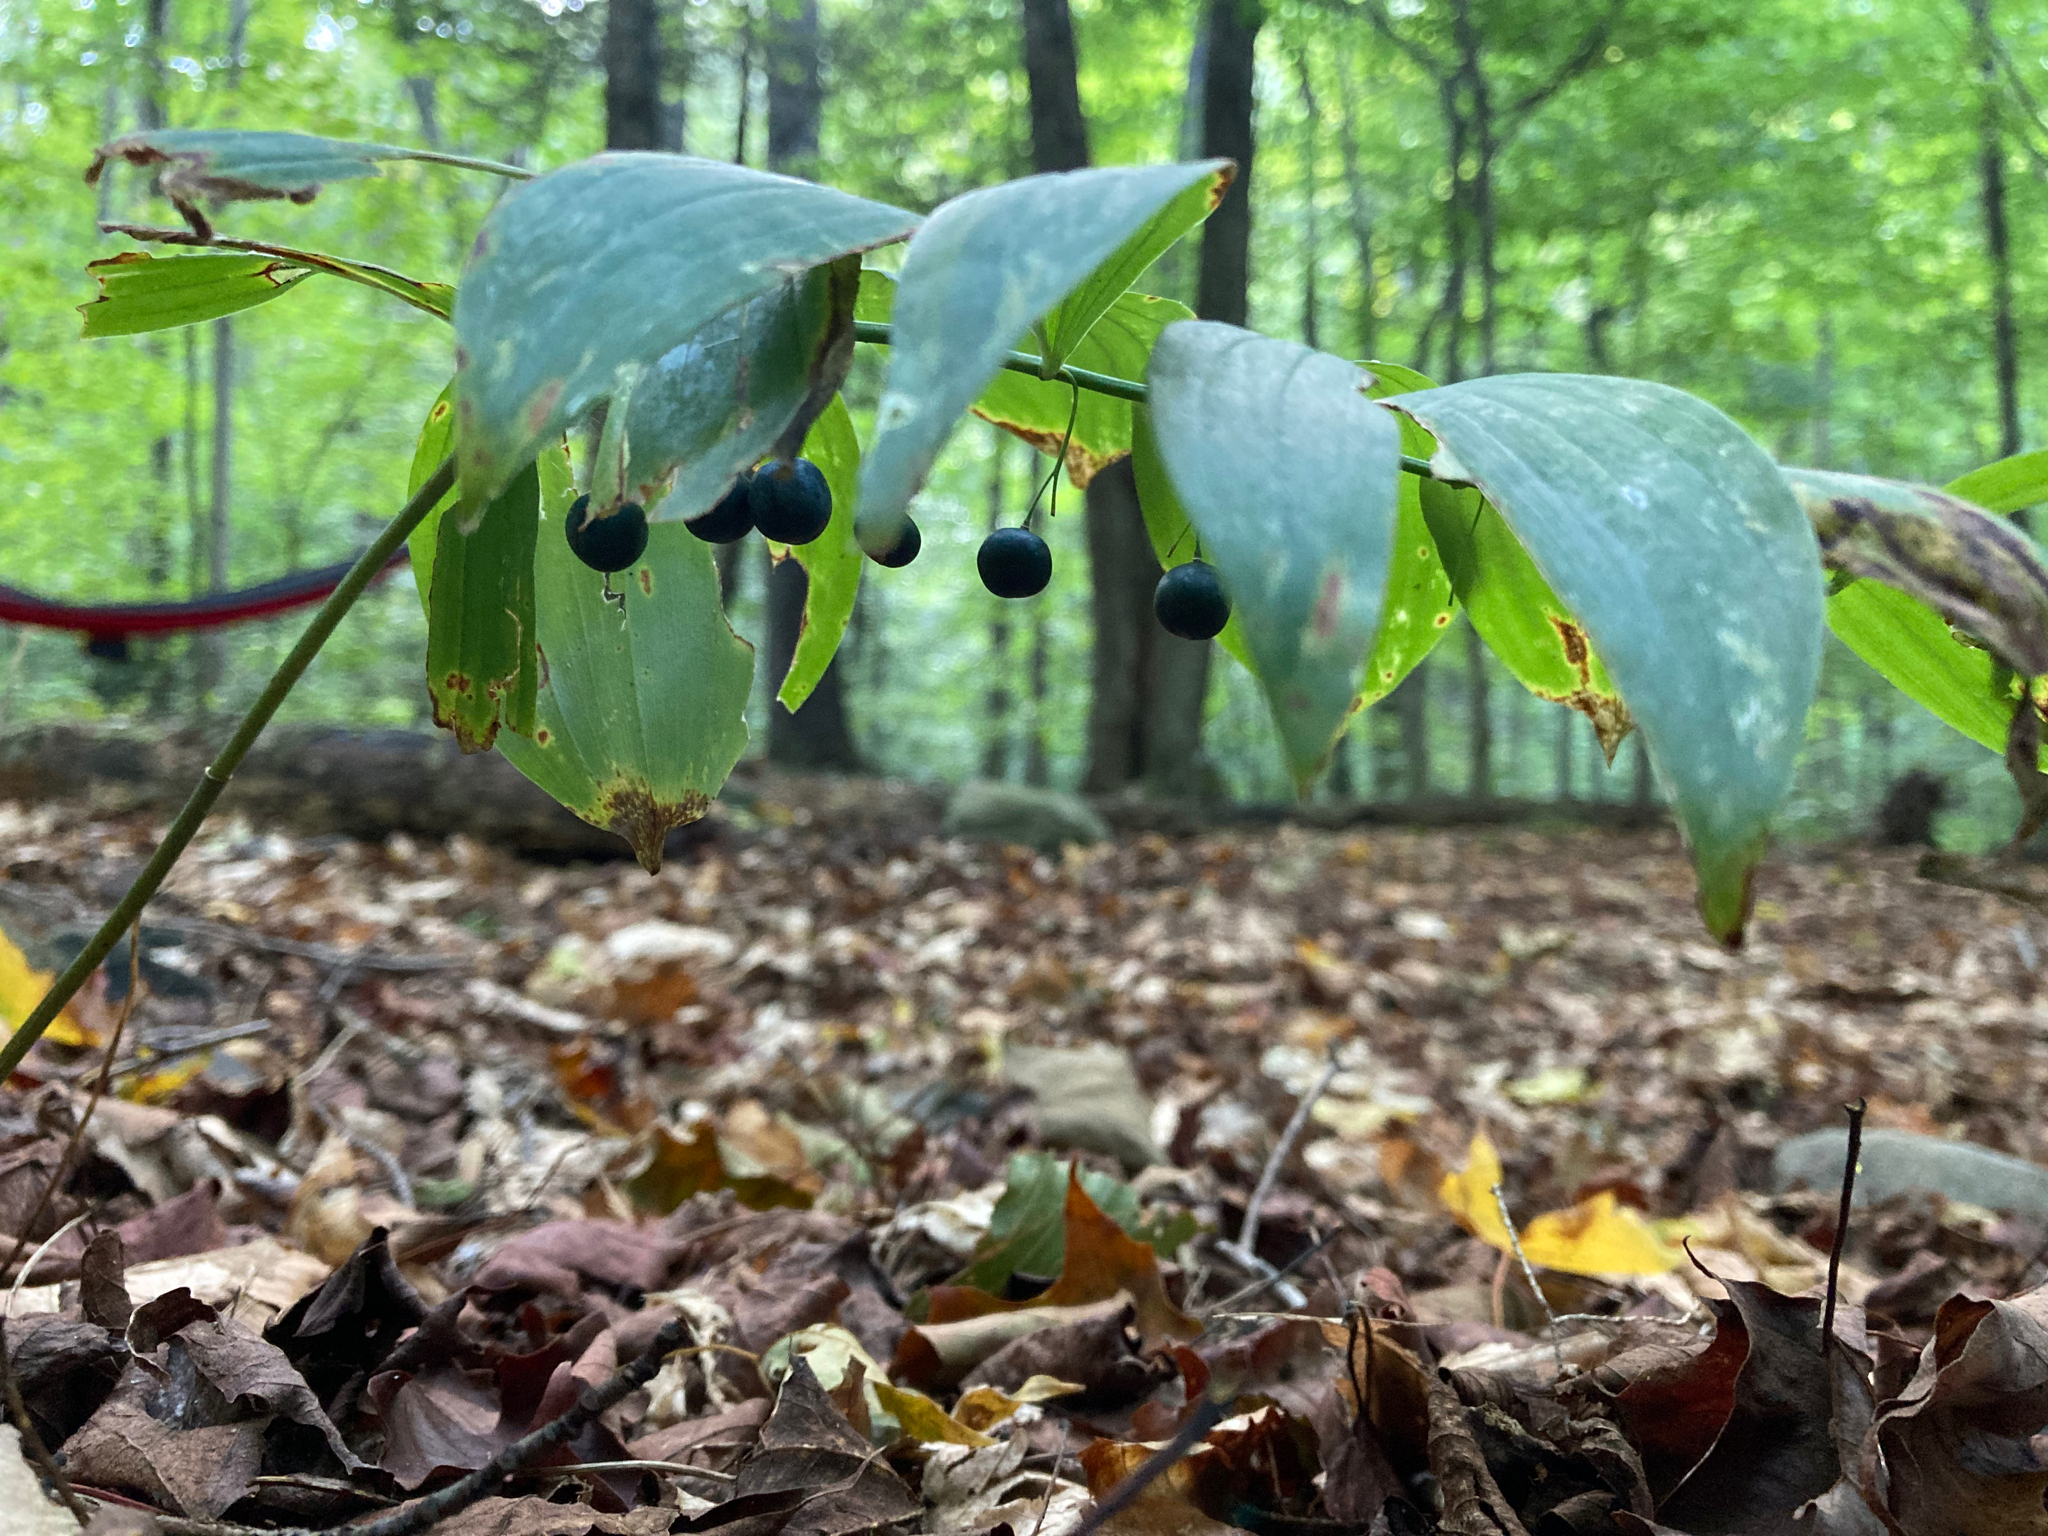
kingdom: Plantae
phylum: Tracheophyta
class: Liliopsida
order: Asparagales
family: Asparagaceae
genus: Polygonatum
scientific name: Polygonatum pubescens
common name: Downy solomon's seal
